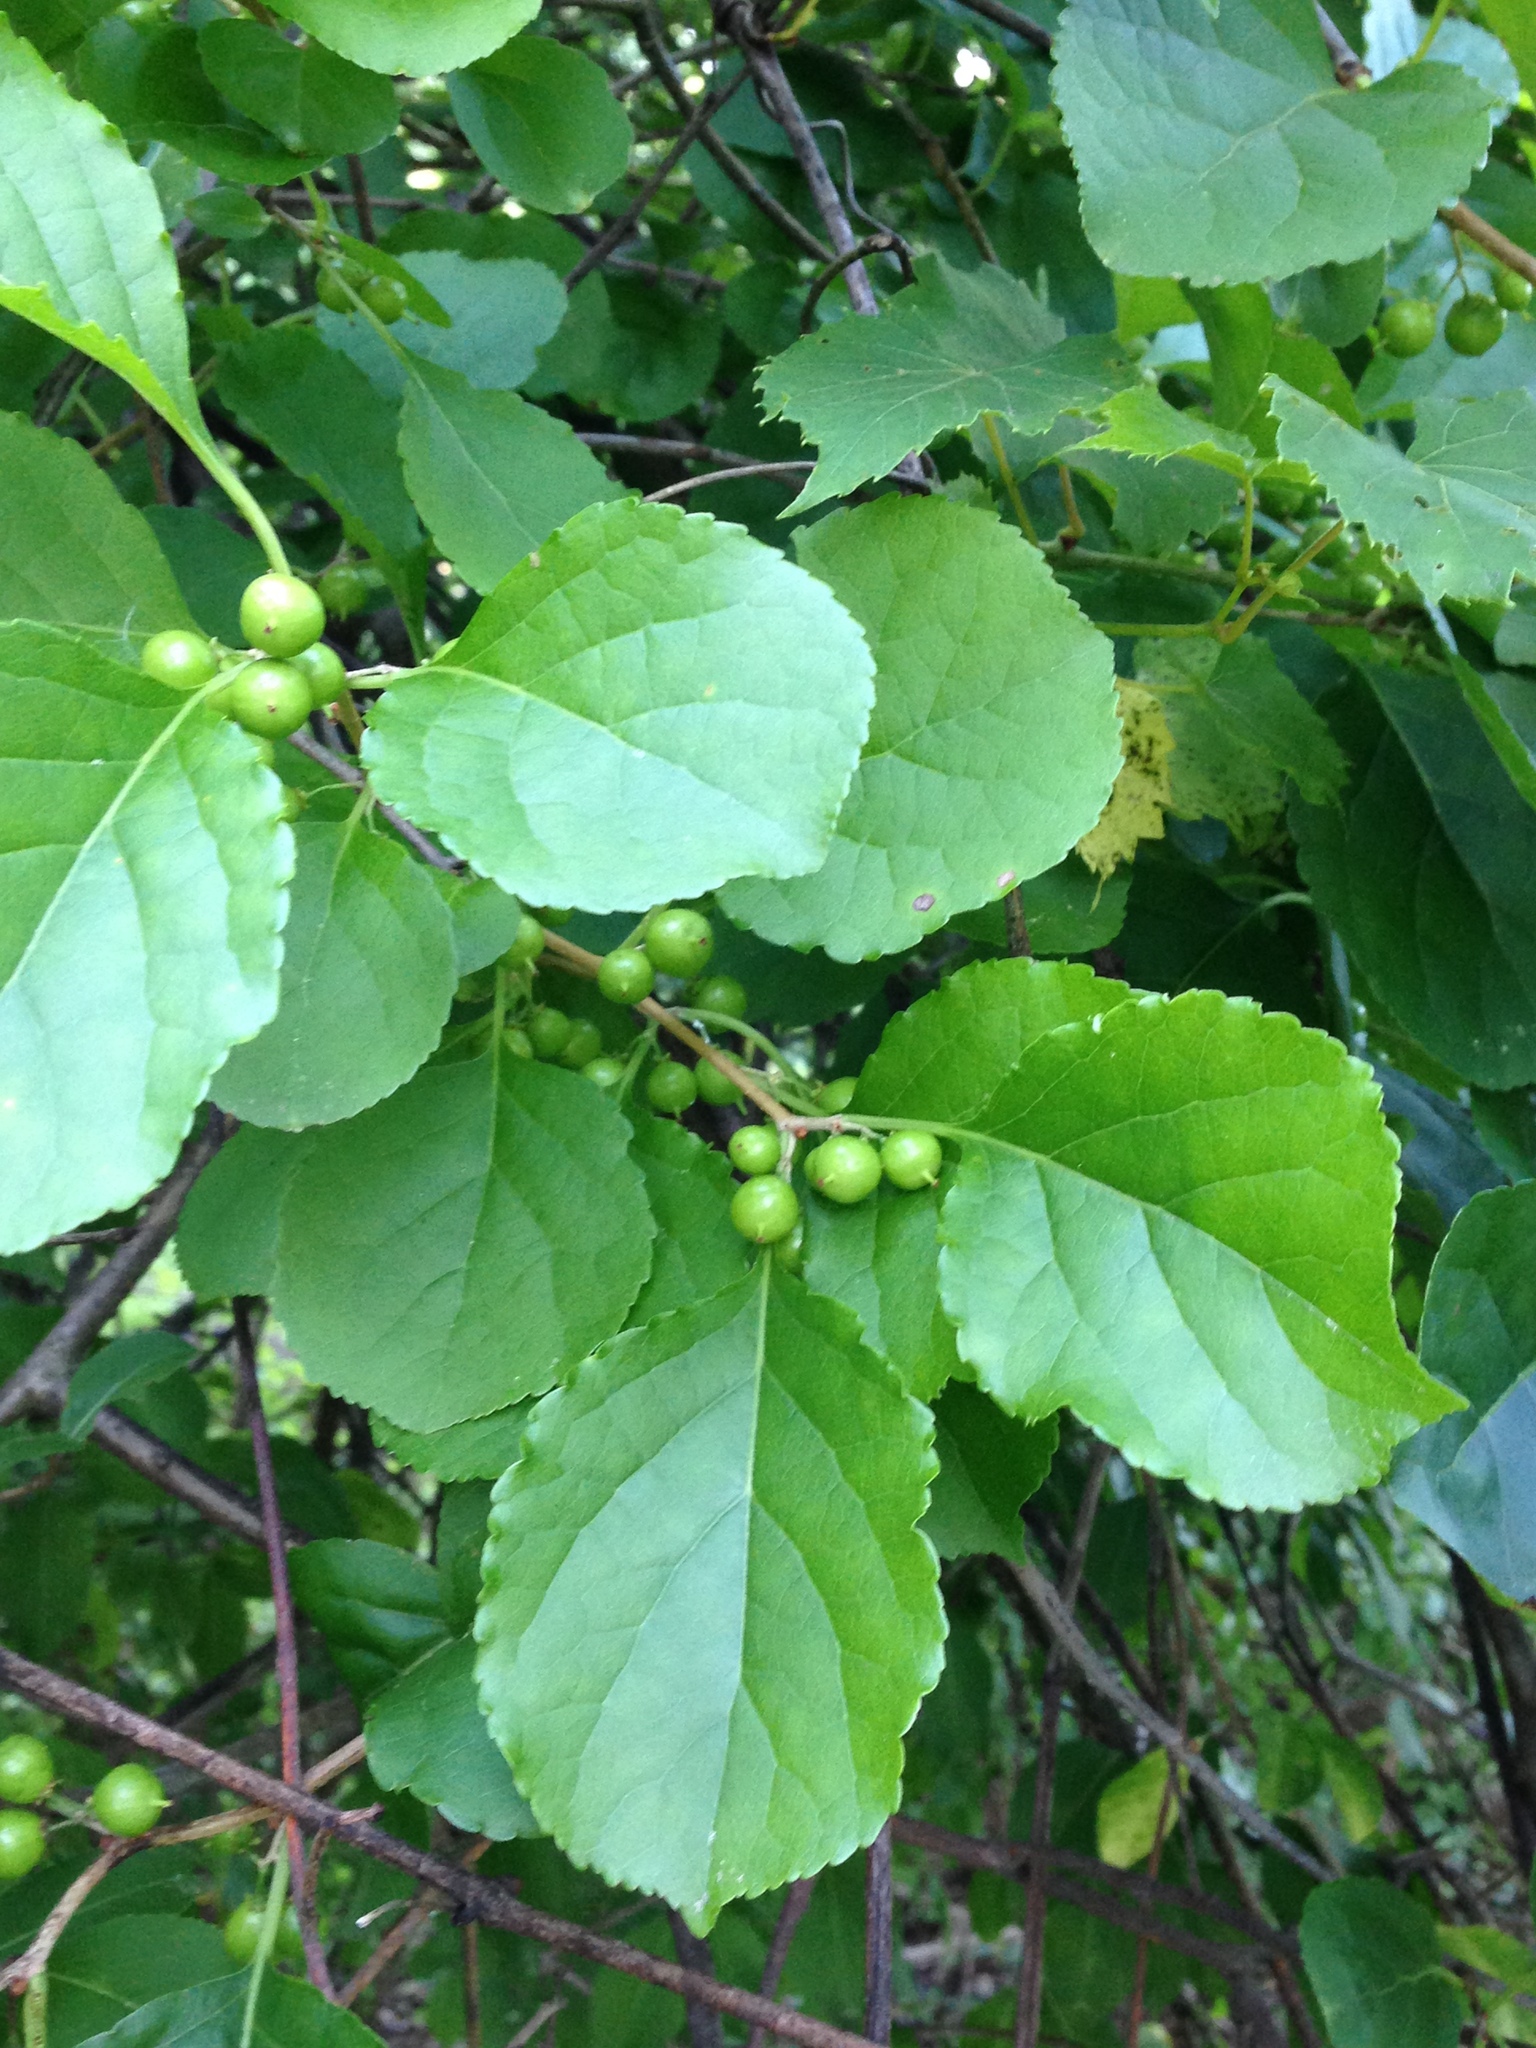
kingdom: Plantae
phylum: Tracheophyta
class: Magnoliopsida
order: Celastrales
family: Celastraceae
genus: Celastrus
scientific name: Celastrus orbiculatus
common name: Oriental bittersweet
